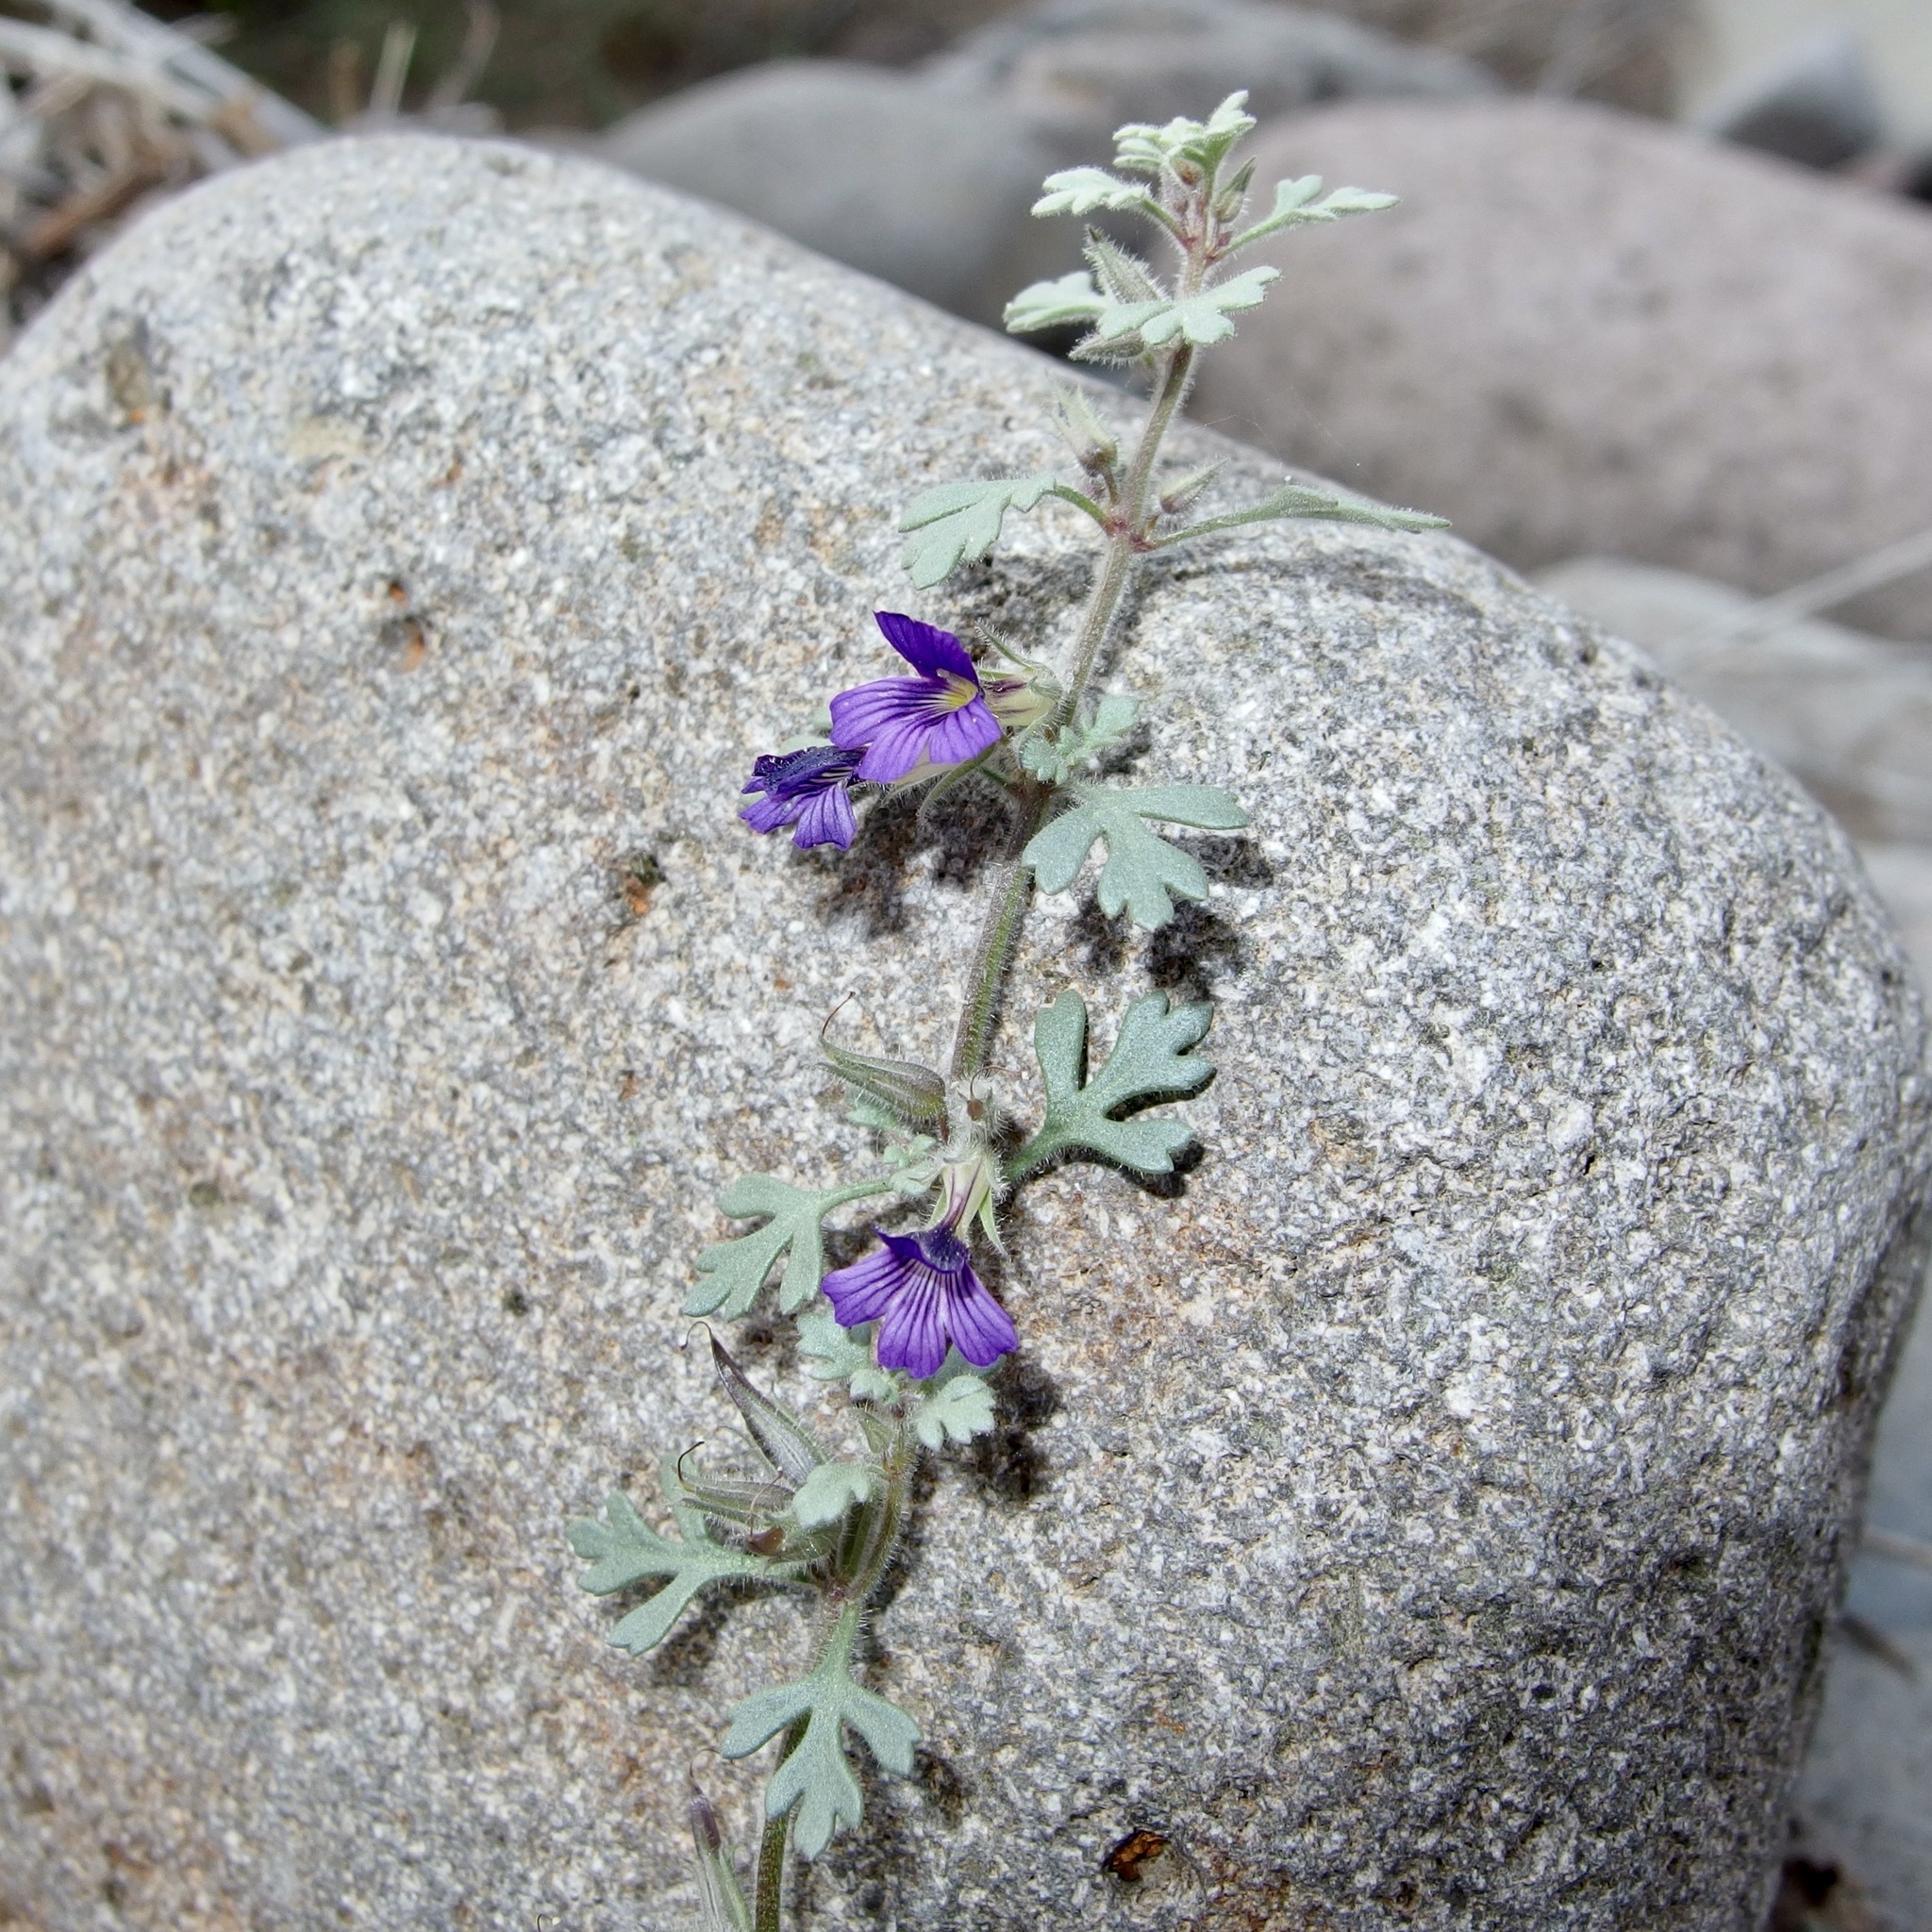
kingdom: Plantae
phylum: Tracheophyta
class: Magnoliopsida
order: Lamiales
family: Plantaginaceae
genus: Schistophragma
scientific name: Schistophragma polystachyum
